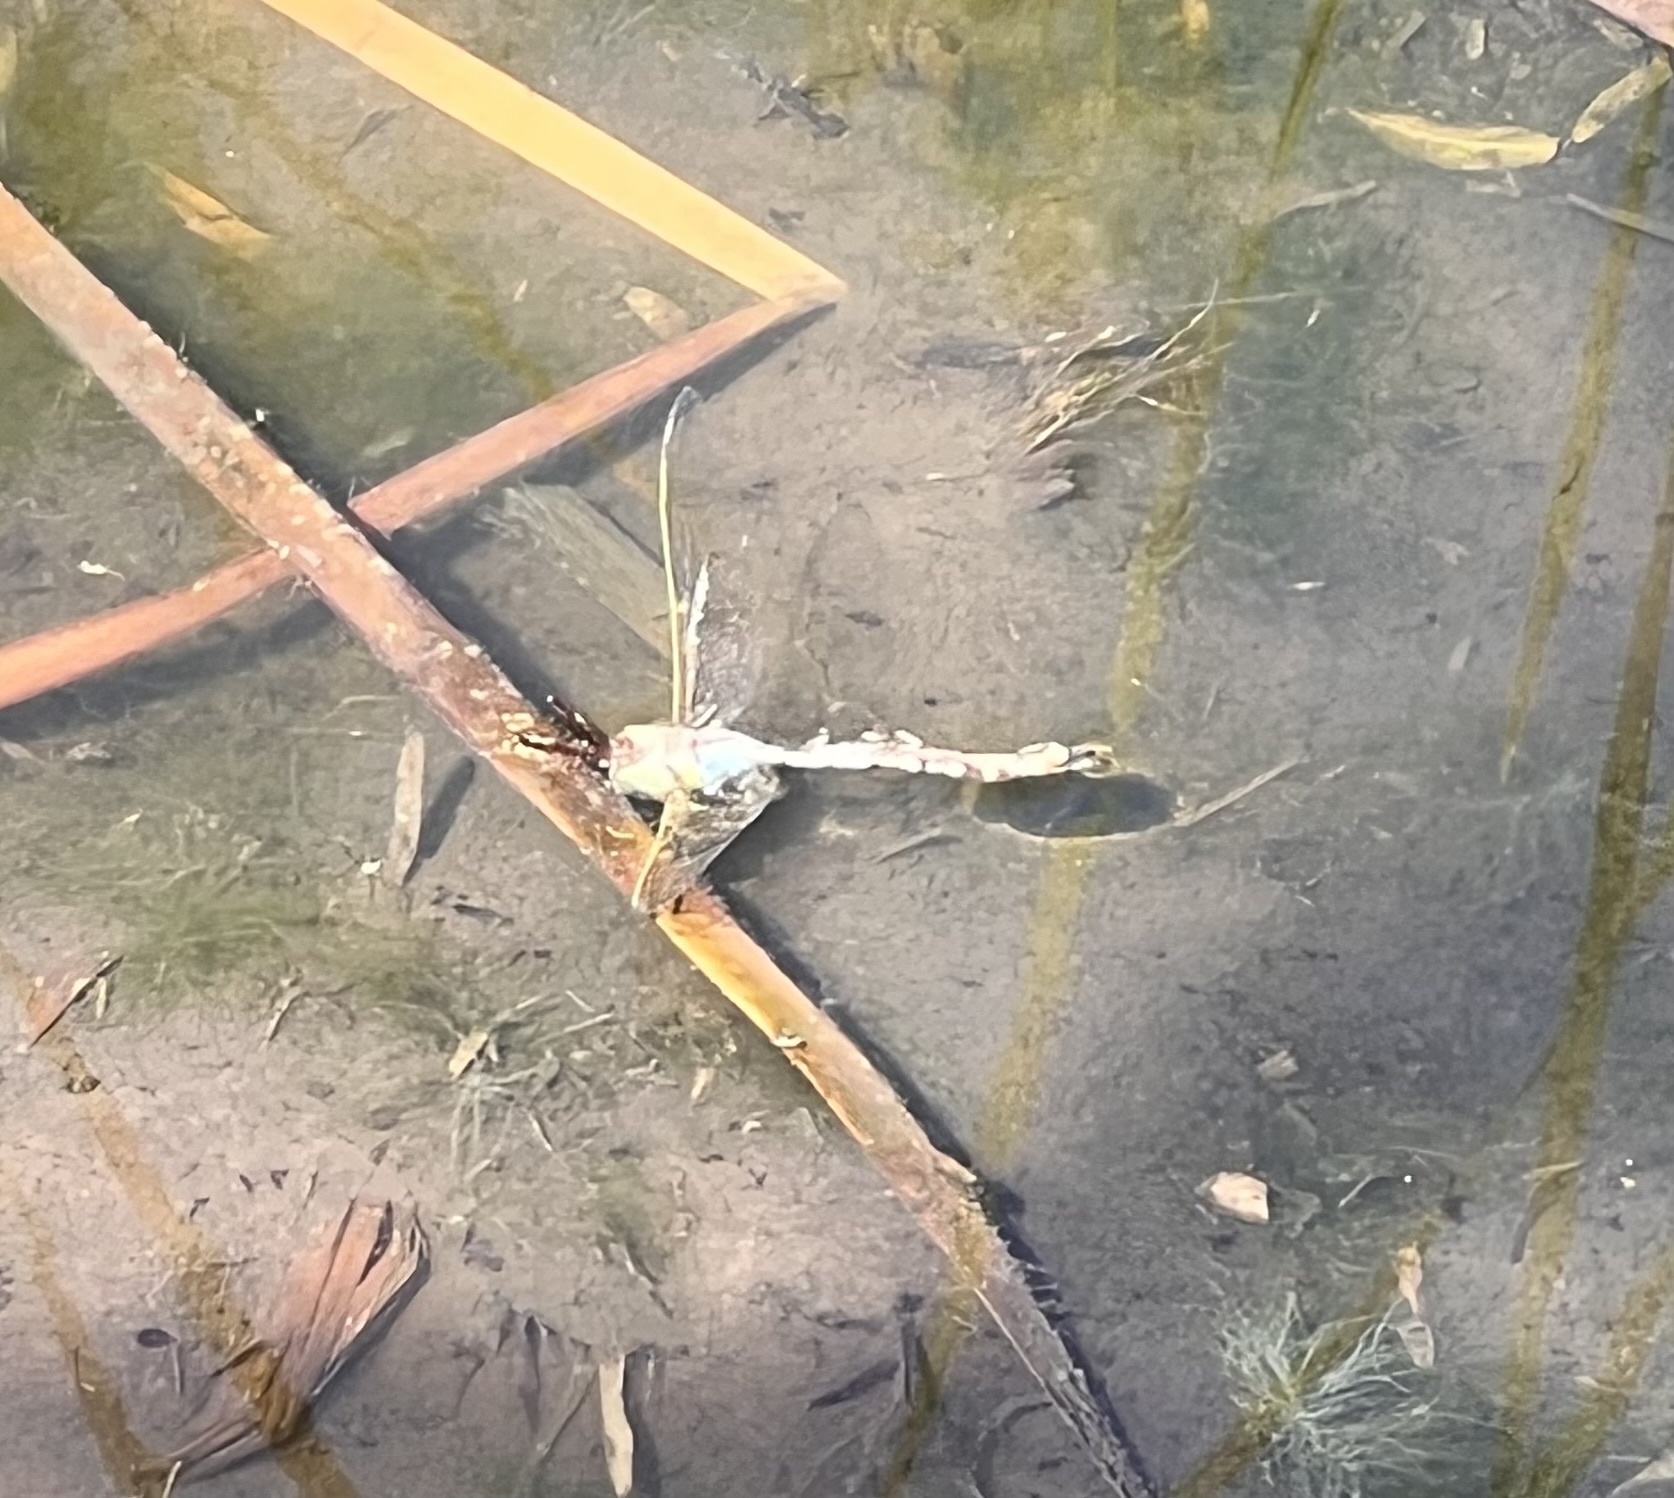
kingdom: Animalia
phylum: Arthropoda
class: Insecta
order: Odonata
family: Aeshnidae
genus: Anax
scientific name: Anax junius
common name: Common green darner
